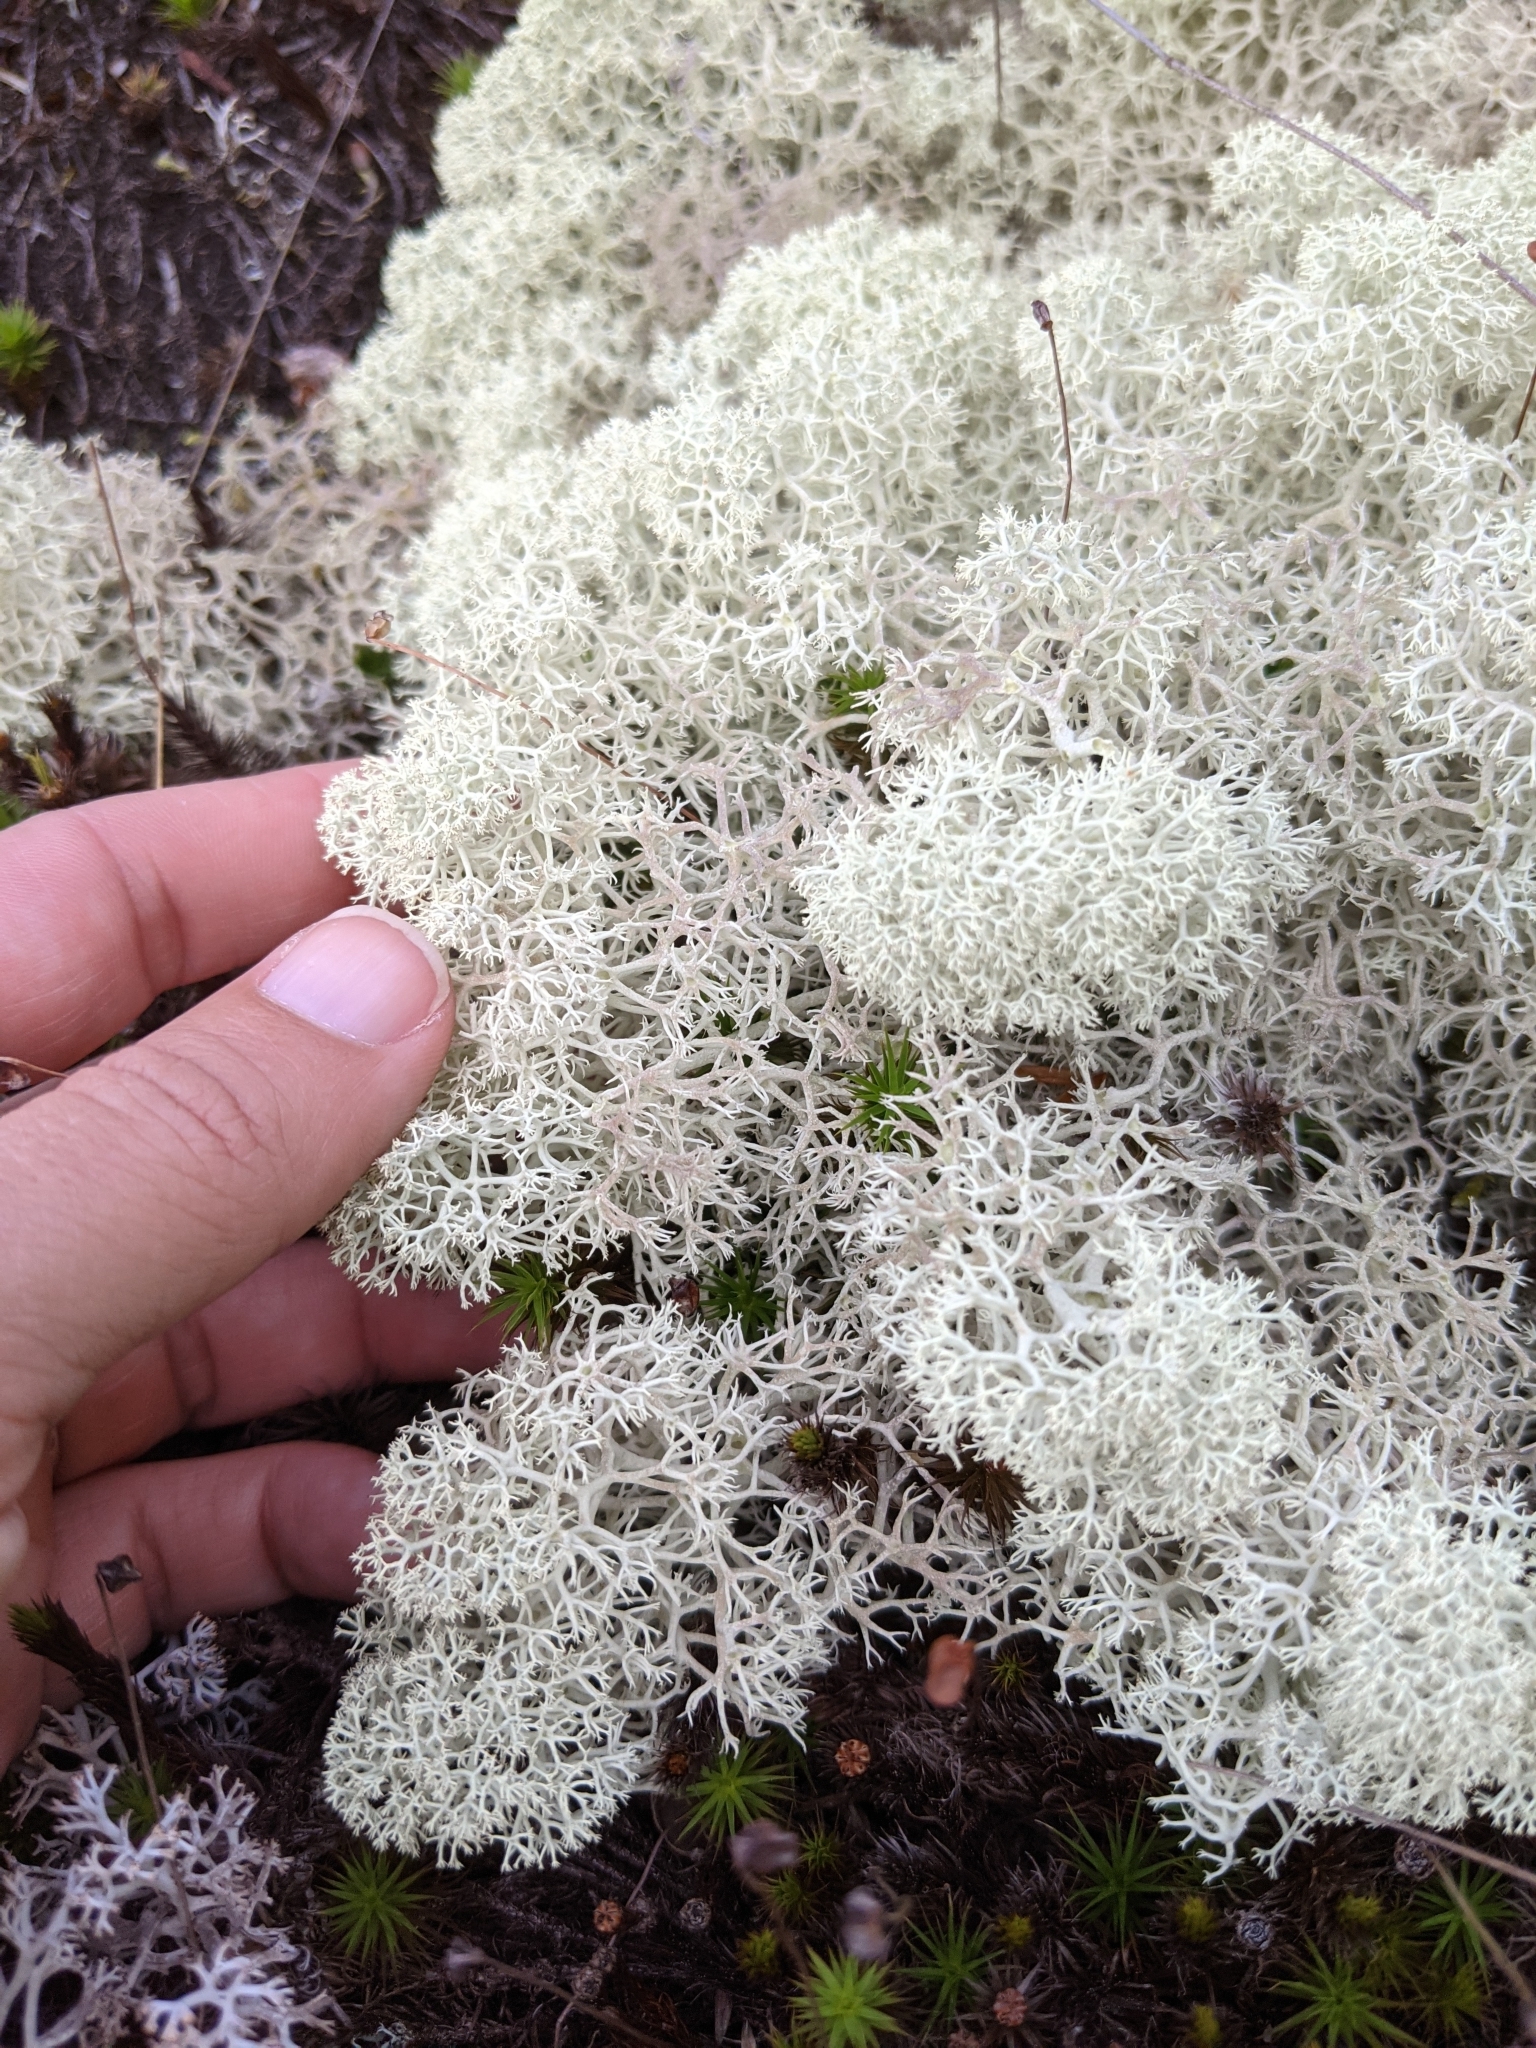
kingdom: Fungi
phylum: Ascomycota
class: Lecanoromycetes
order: Lecanorales
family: Cladoniaceae
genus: Cladonia
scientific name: Cladonia stellaris
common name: Star-tipped reindeer lichen
